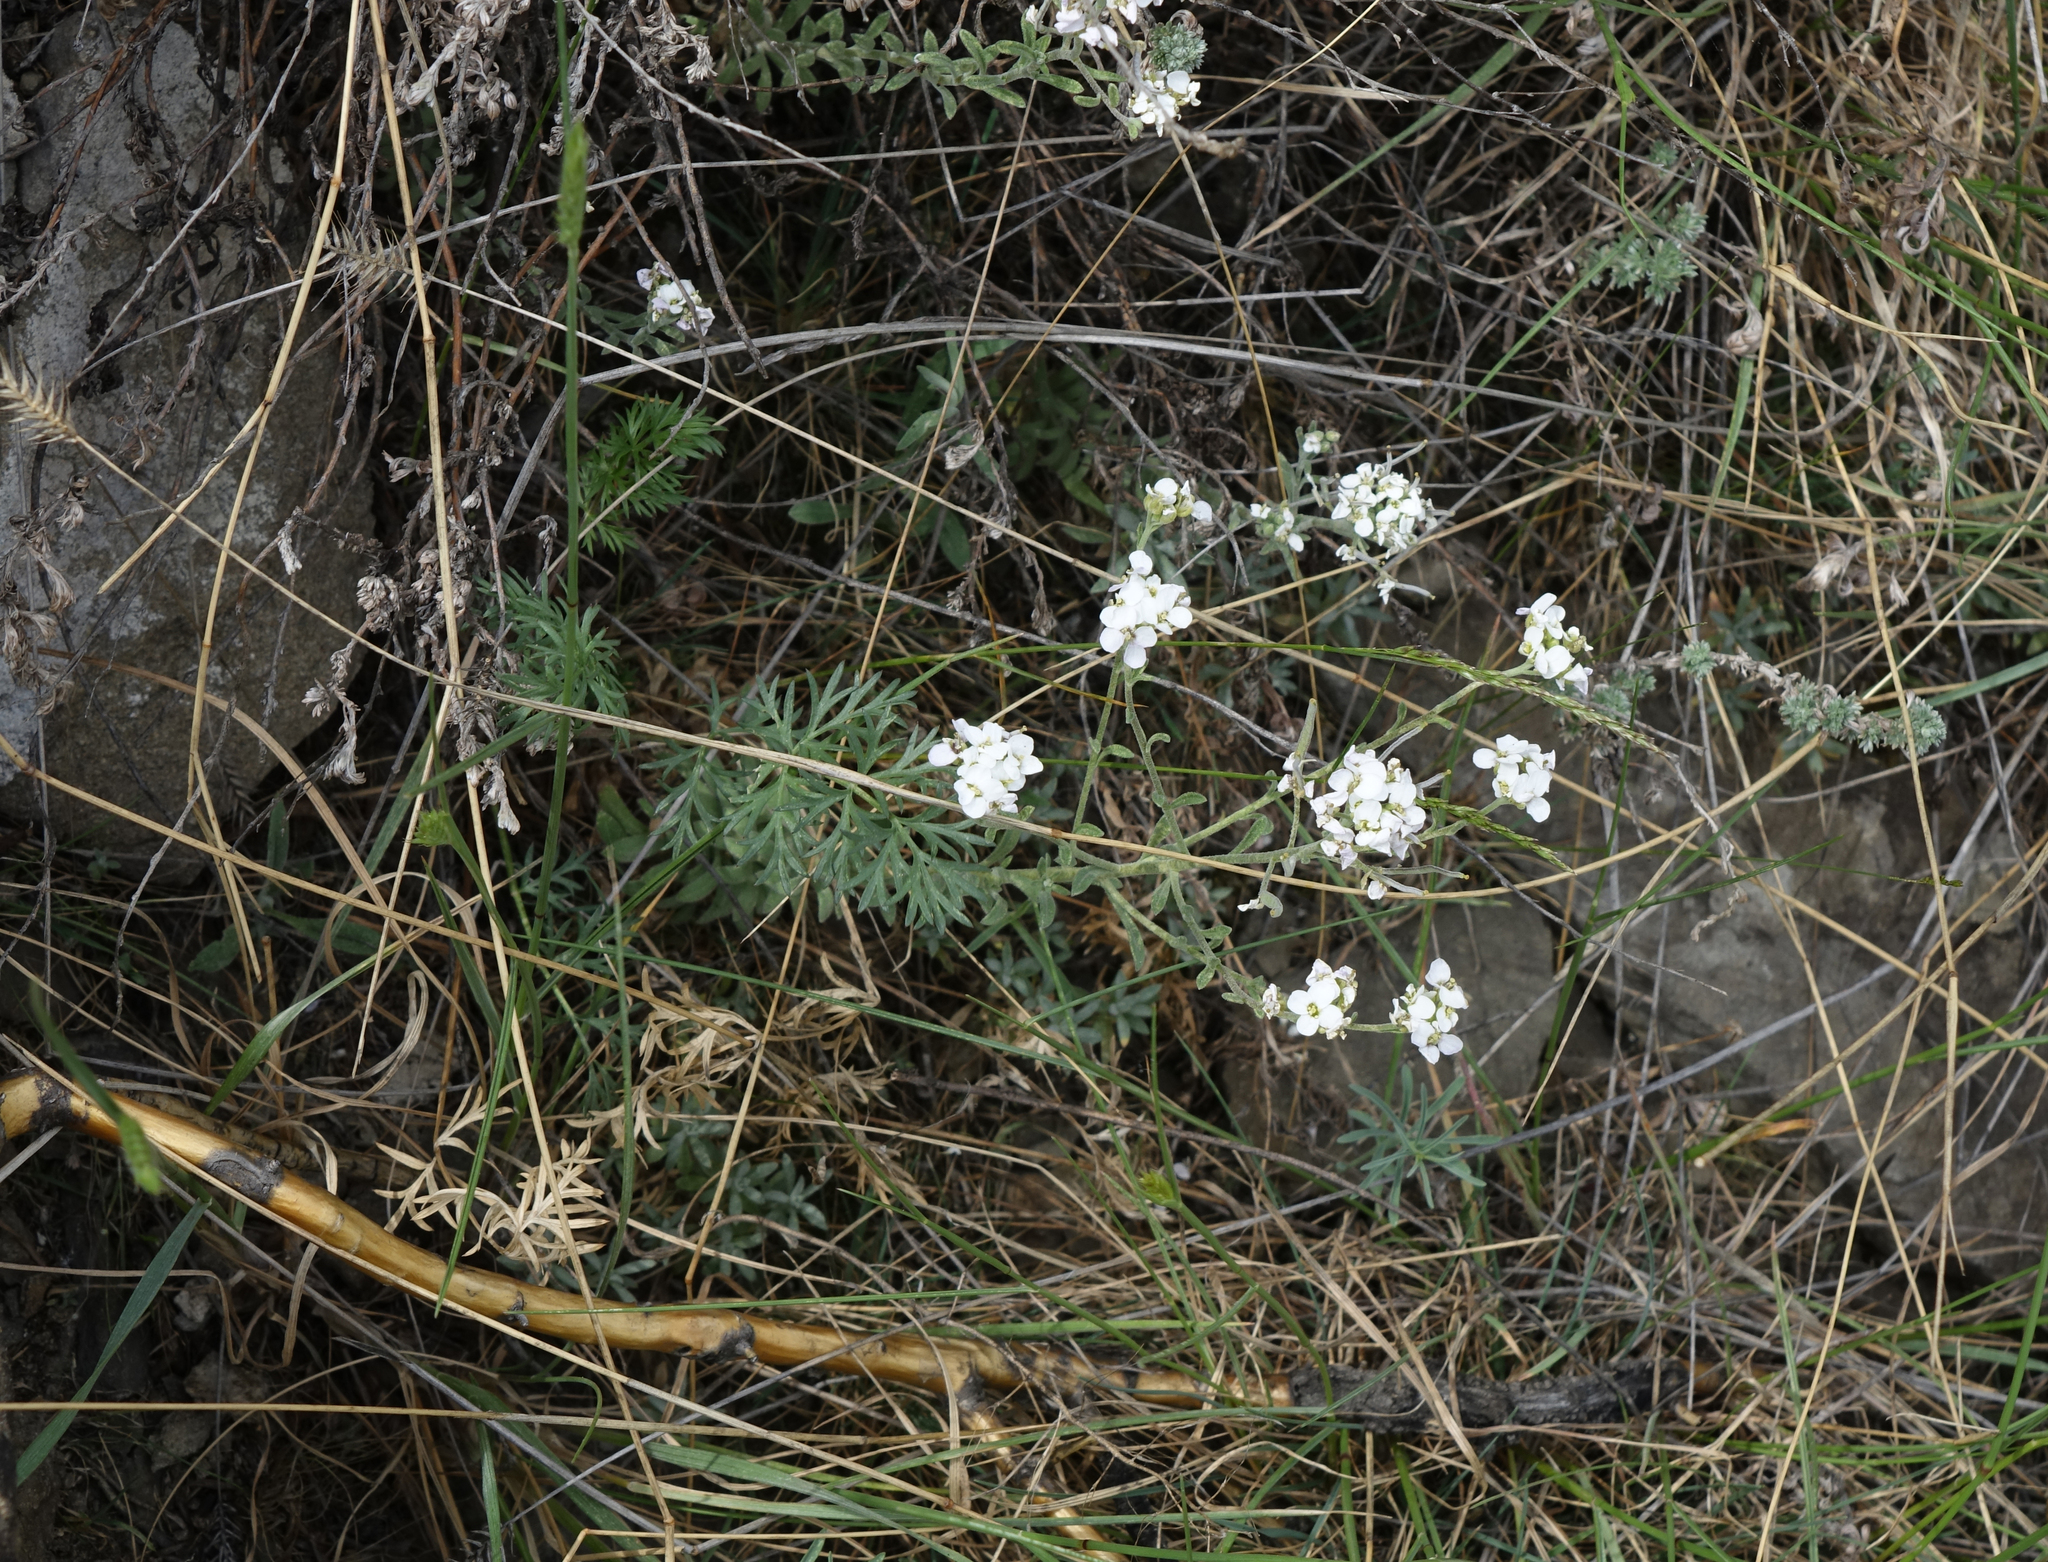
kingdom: Plantae
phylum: Tracheophyta
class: Magnoliopsida
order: Brassicales
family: Brassicaceae
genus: Stevenia
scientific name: Stevenia incarnata
